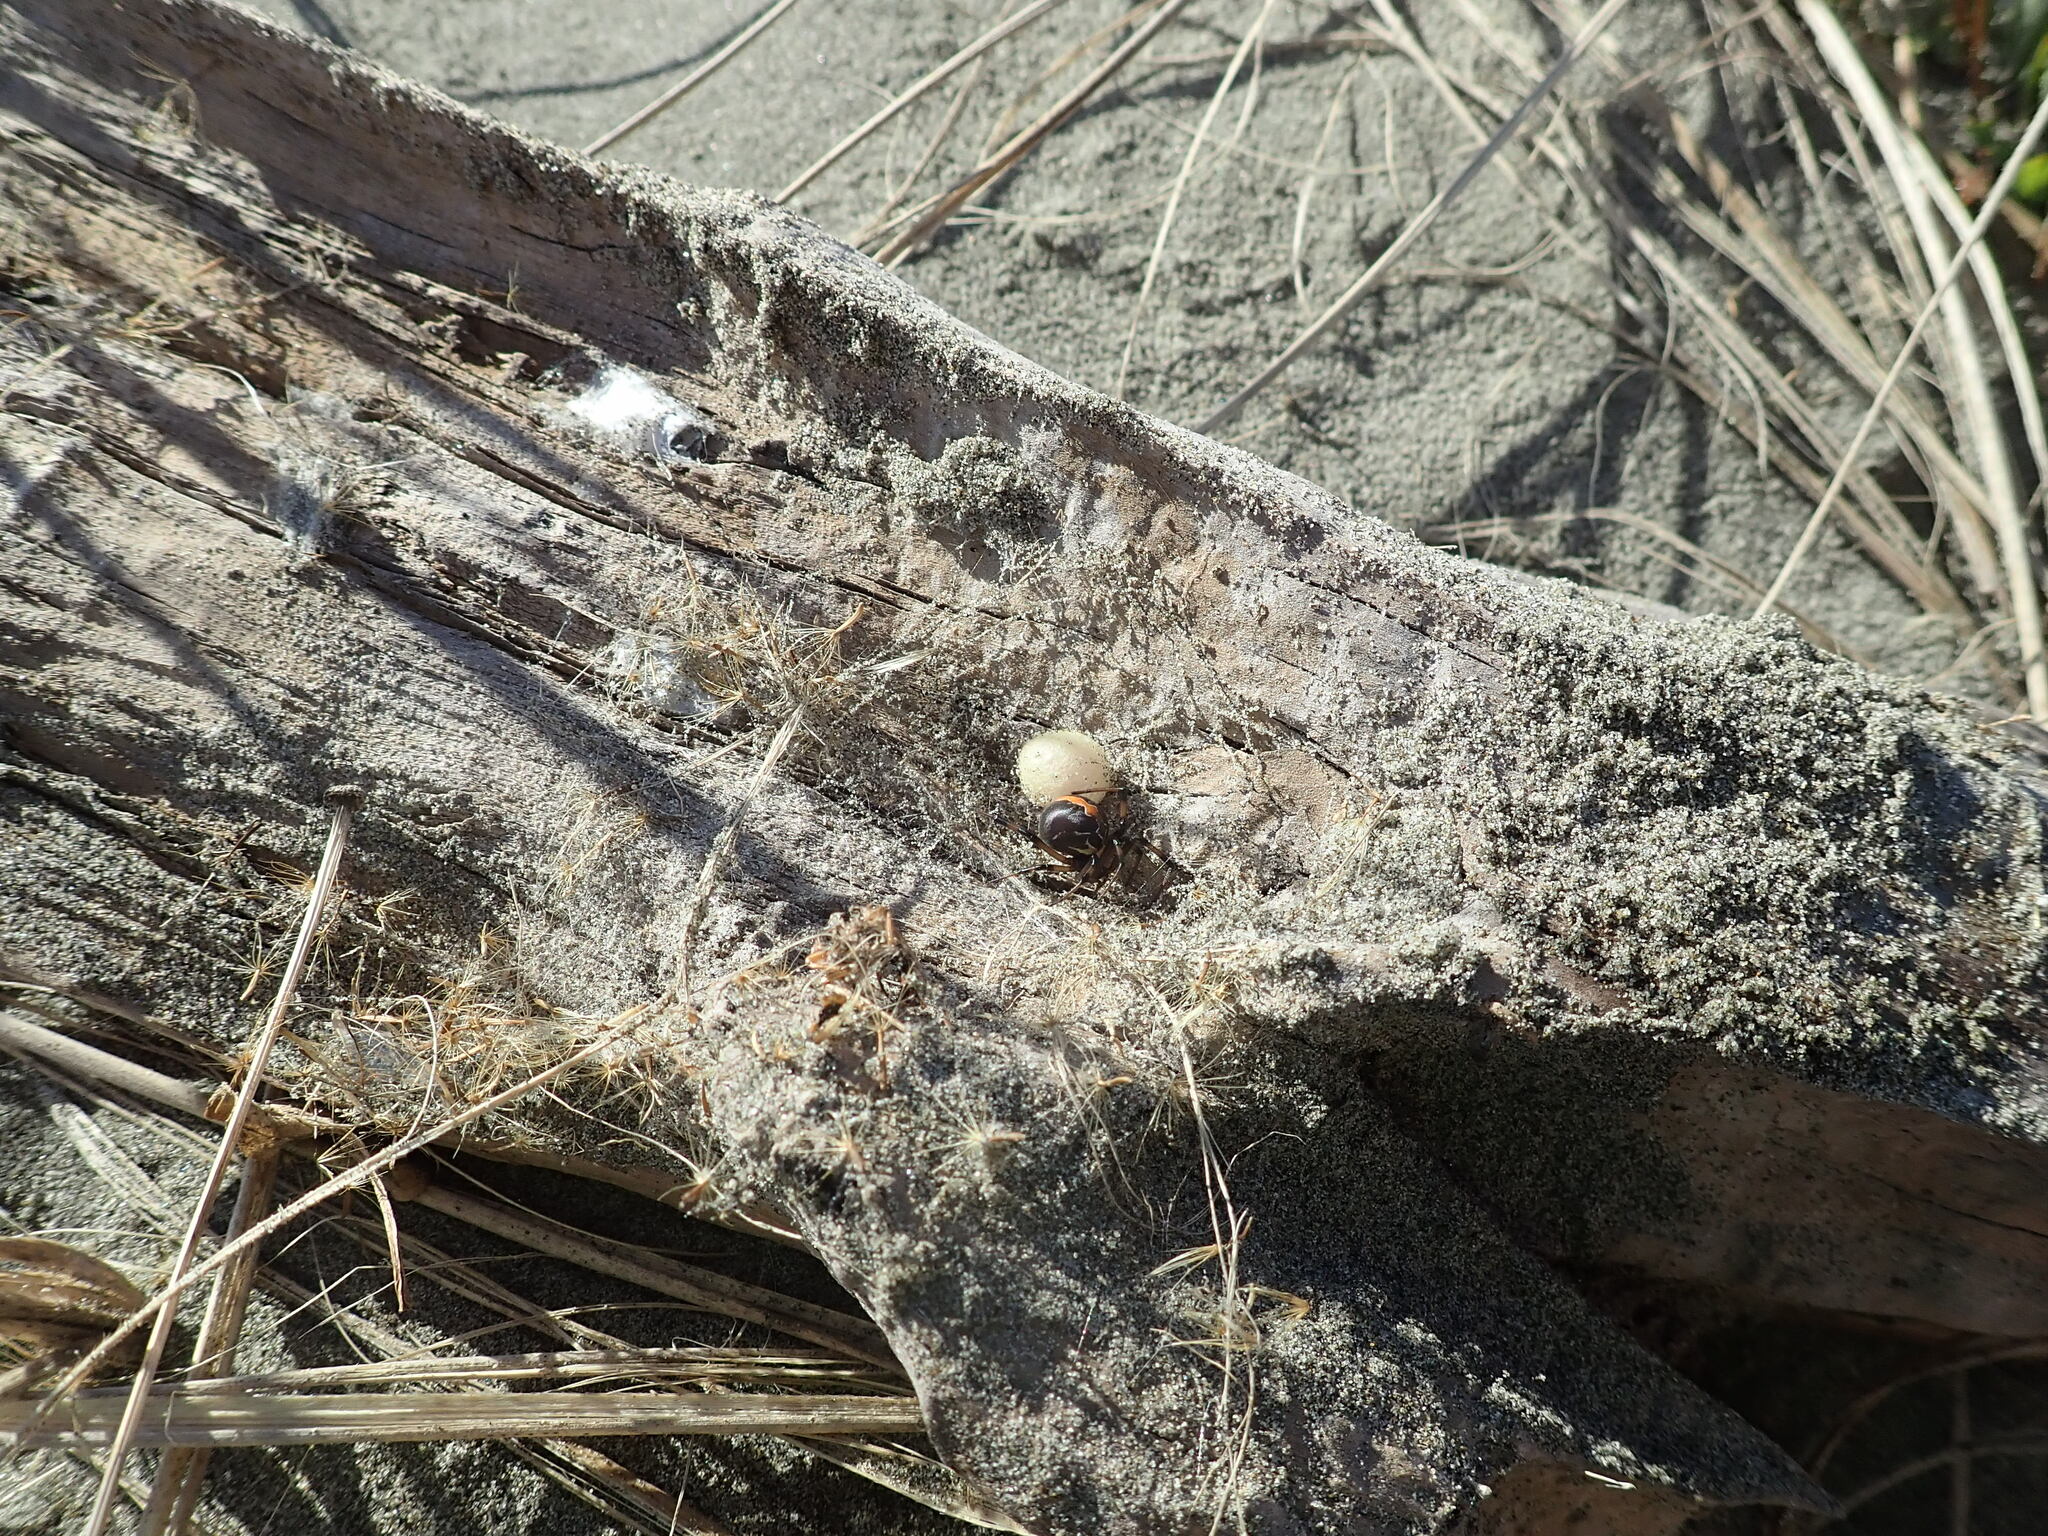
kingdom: Animalia
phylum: Arthropoda
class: Arachnida
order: Araneae
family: Theridiidae
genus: Latrodectus
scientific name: Latrodectus katipo
